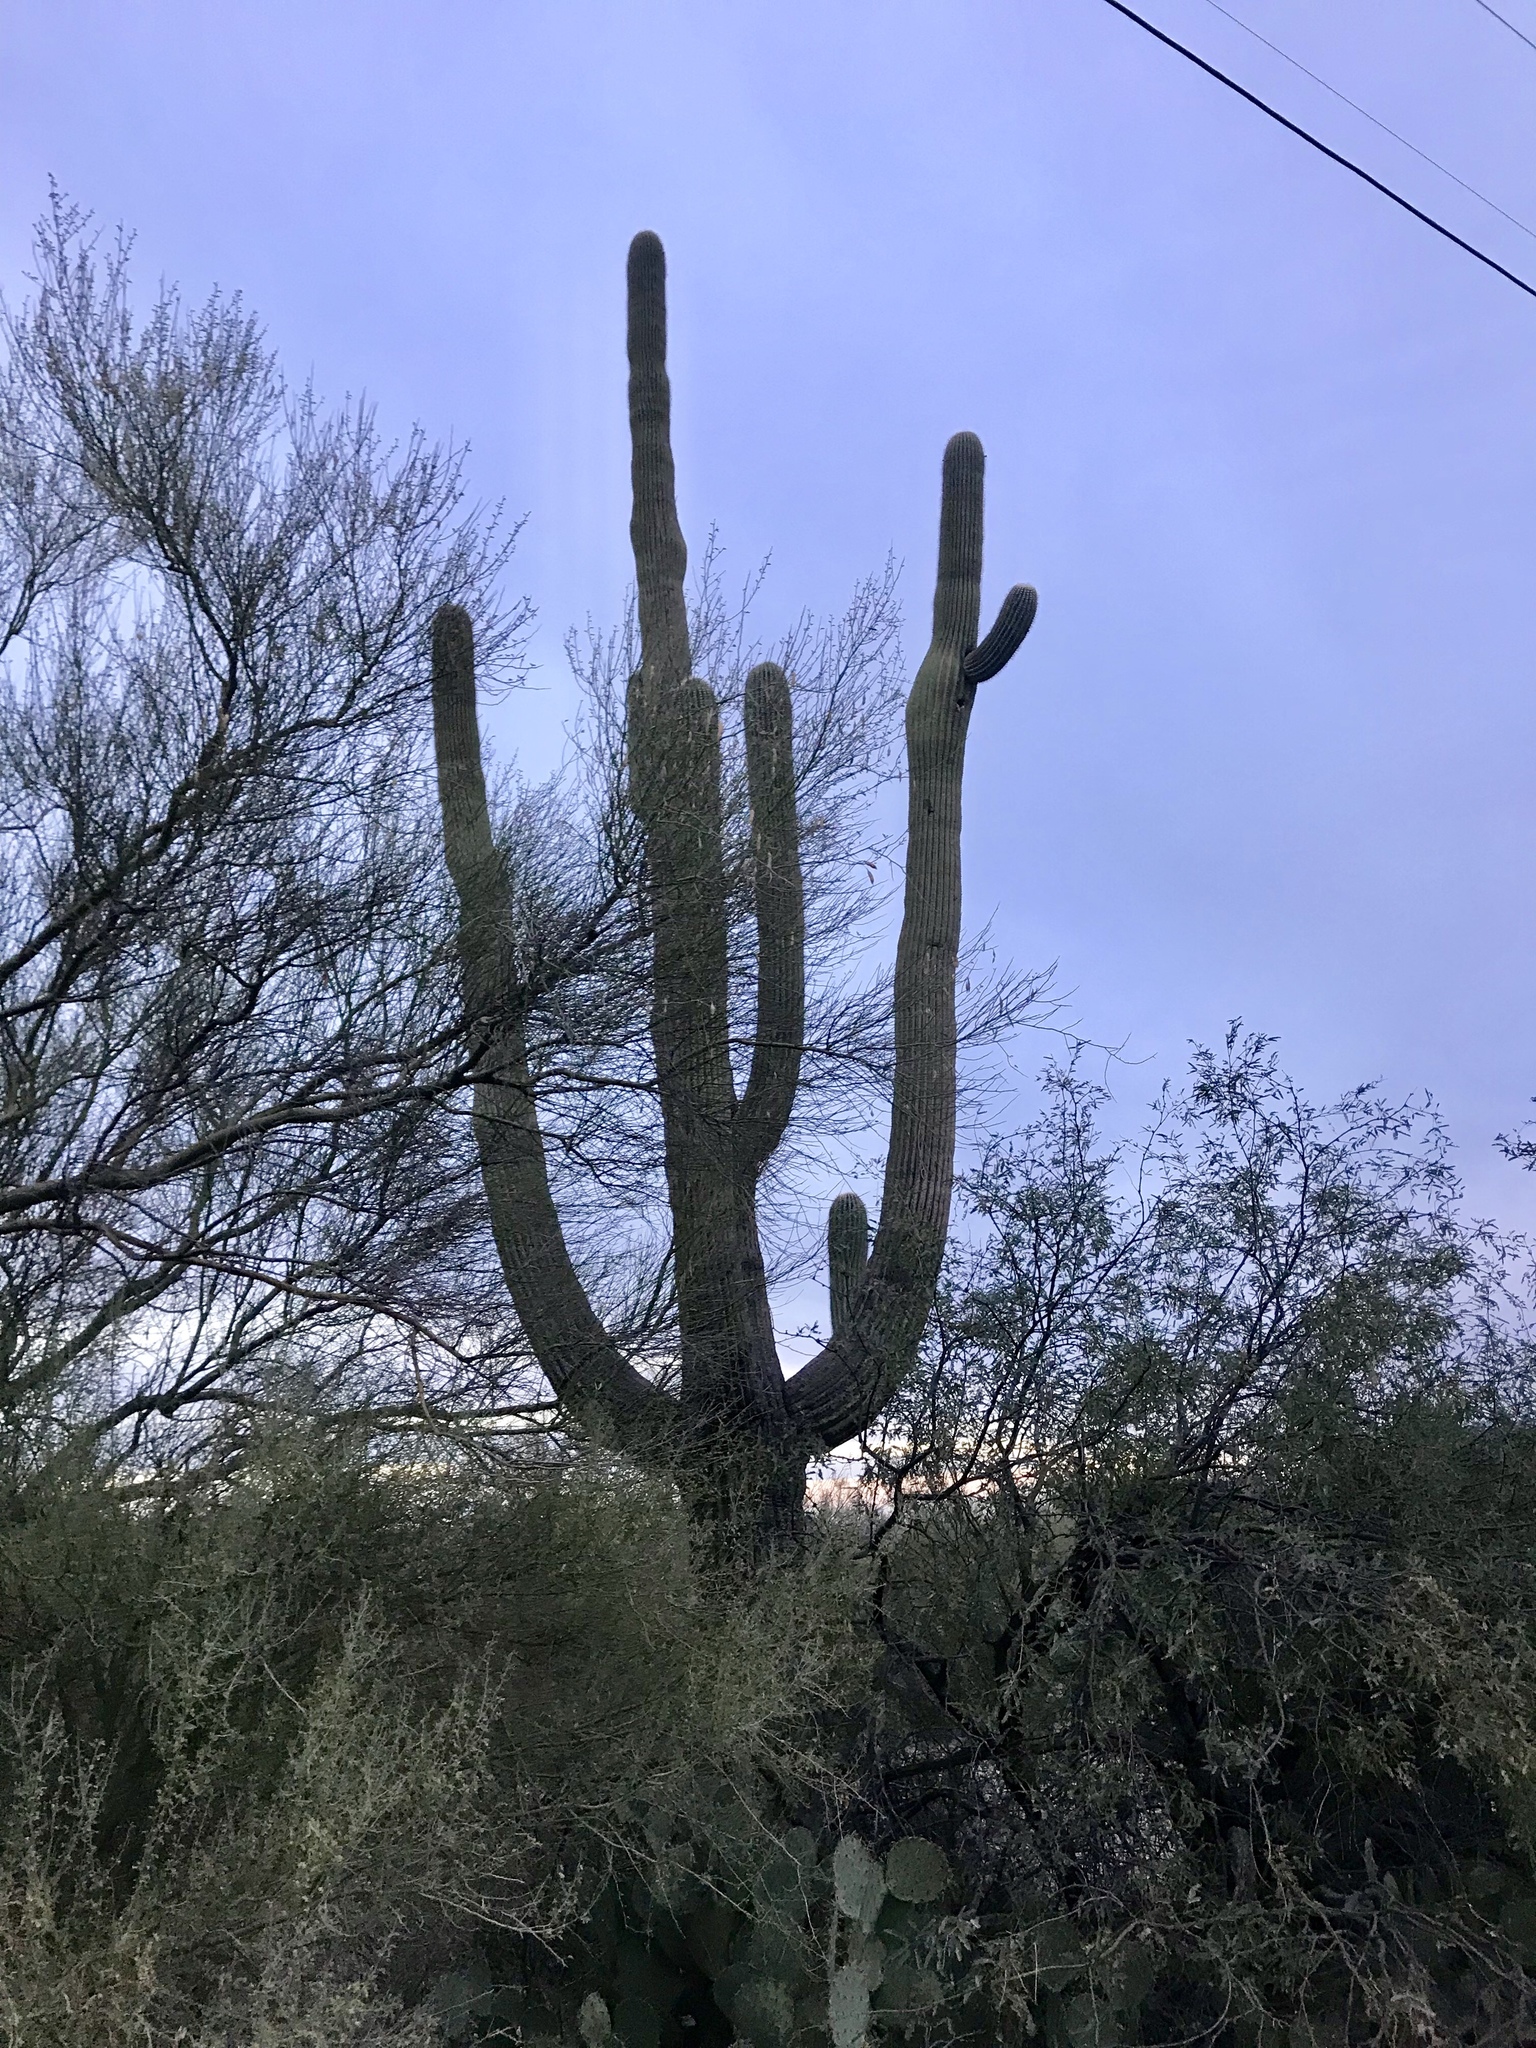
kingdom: Plantae
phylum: Tracheophyta
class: Magnoliopsida
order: Caryophyllales
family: Cactaceae
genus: Carnegiea
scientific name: Carnegiea gigantea
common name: Saguaro
